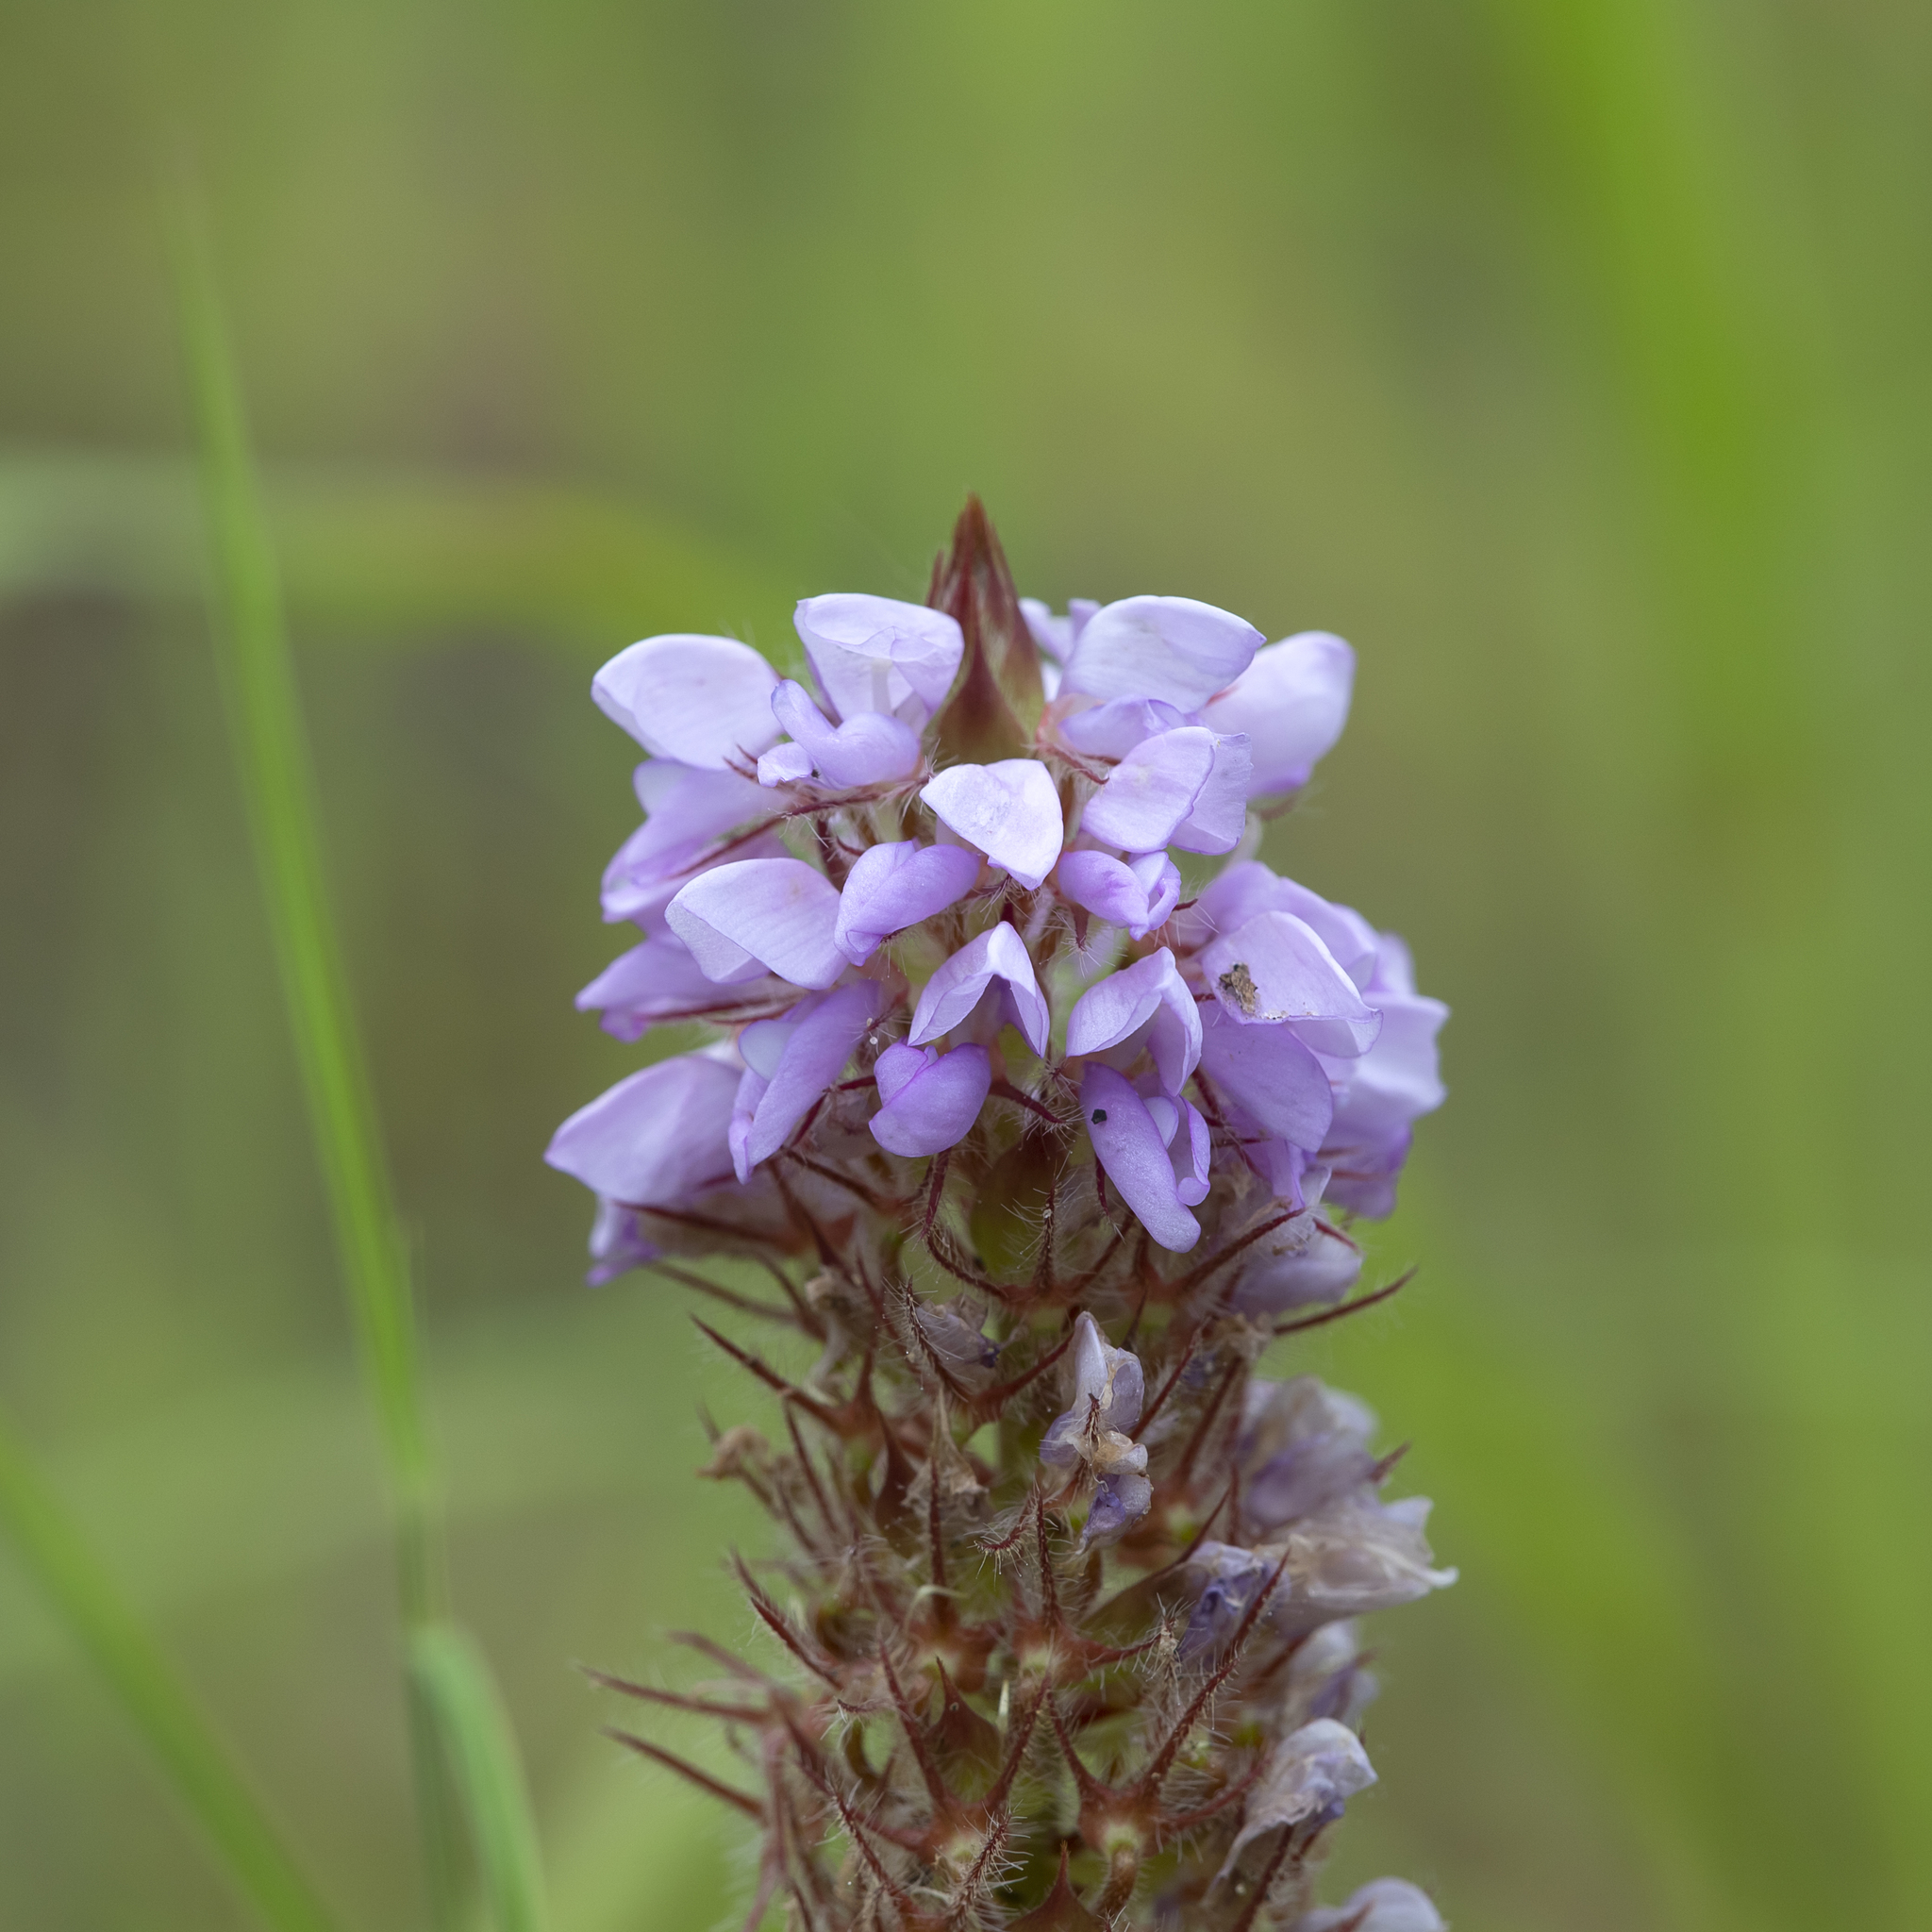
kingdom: Plantae
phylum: Tracheophyta
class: Magnoliopsida
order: Fabales
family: Fabaceae
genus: Uraria
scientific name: Uraria lagopodioides
